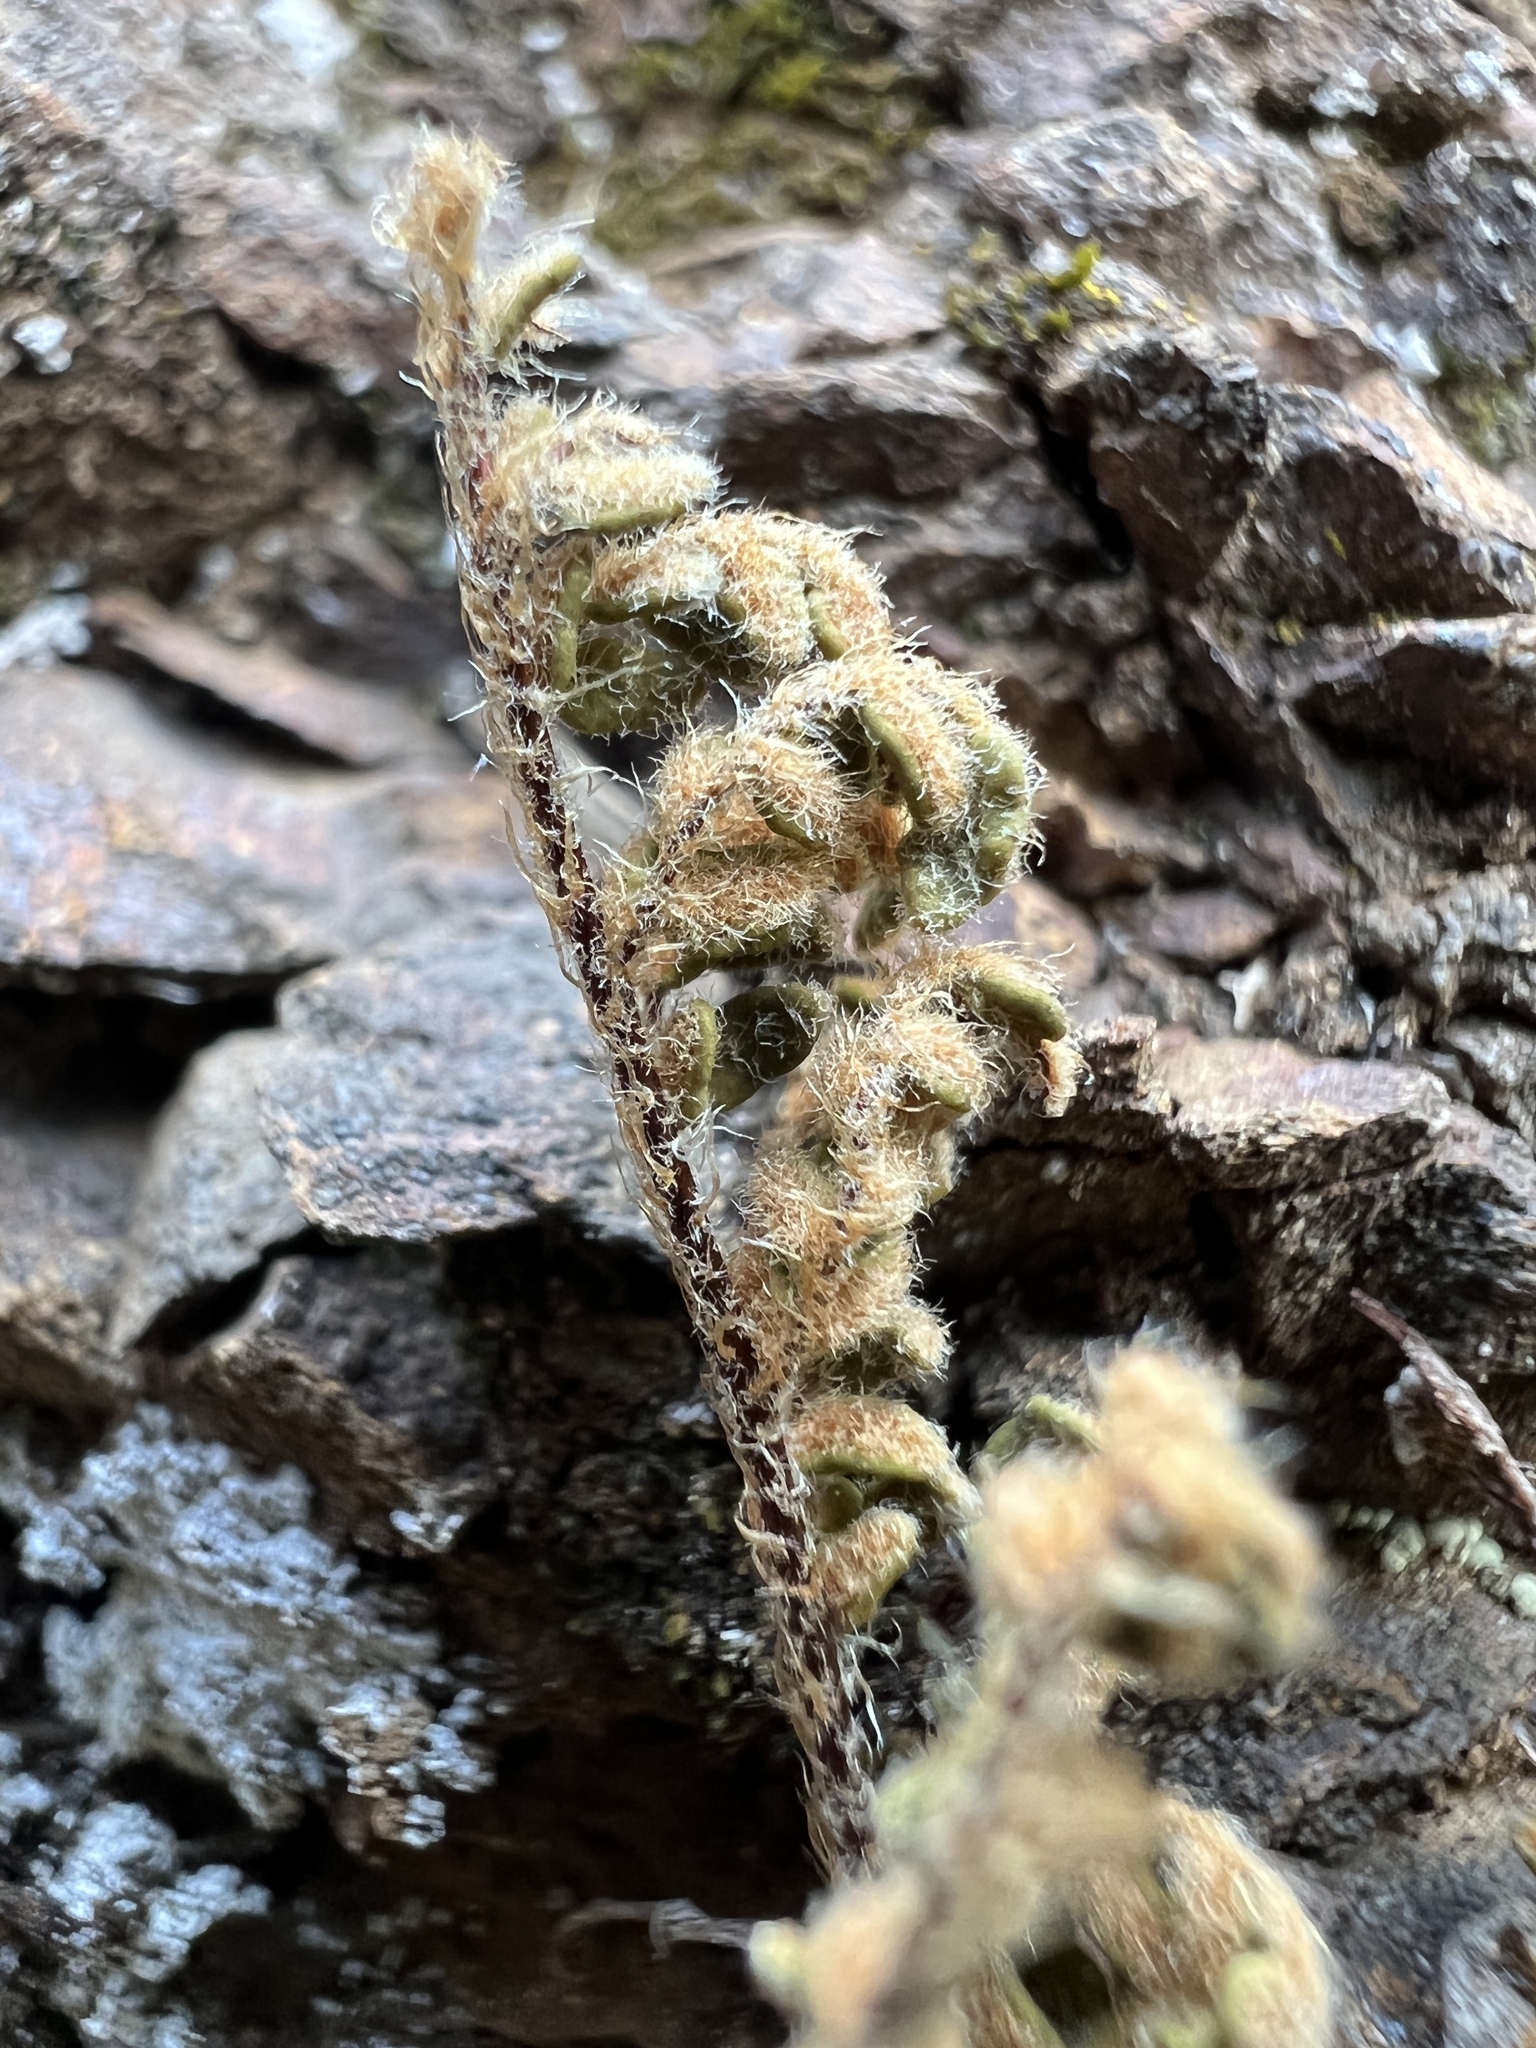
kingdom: Plantae
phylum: Tracheophyta
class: Polypodiopsida
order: Polypodiales
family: Pteridaceae
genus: Myriopteris
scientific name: Myriopteris gracillima
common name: Lace fern
